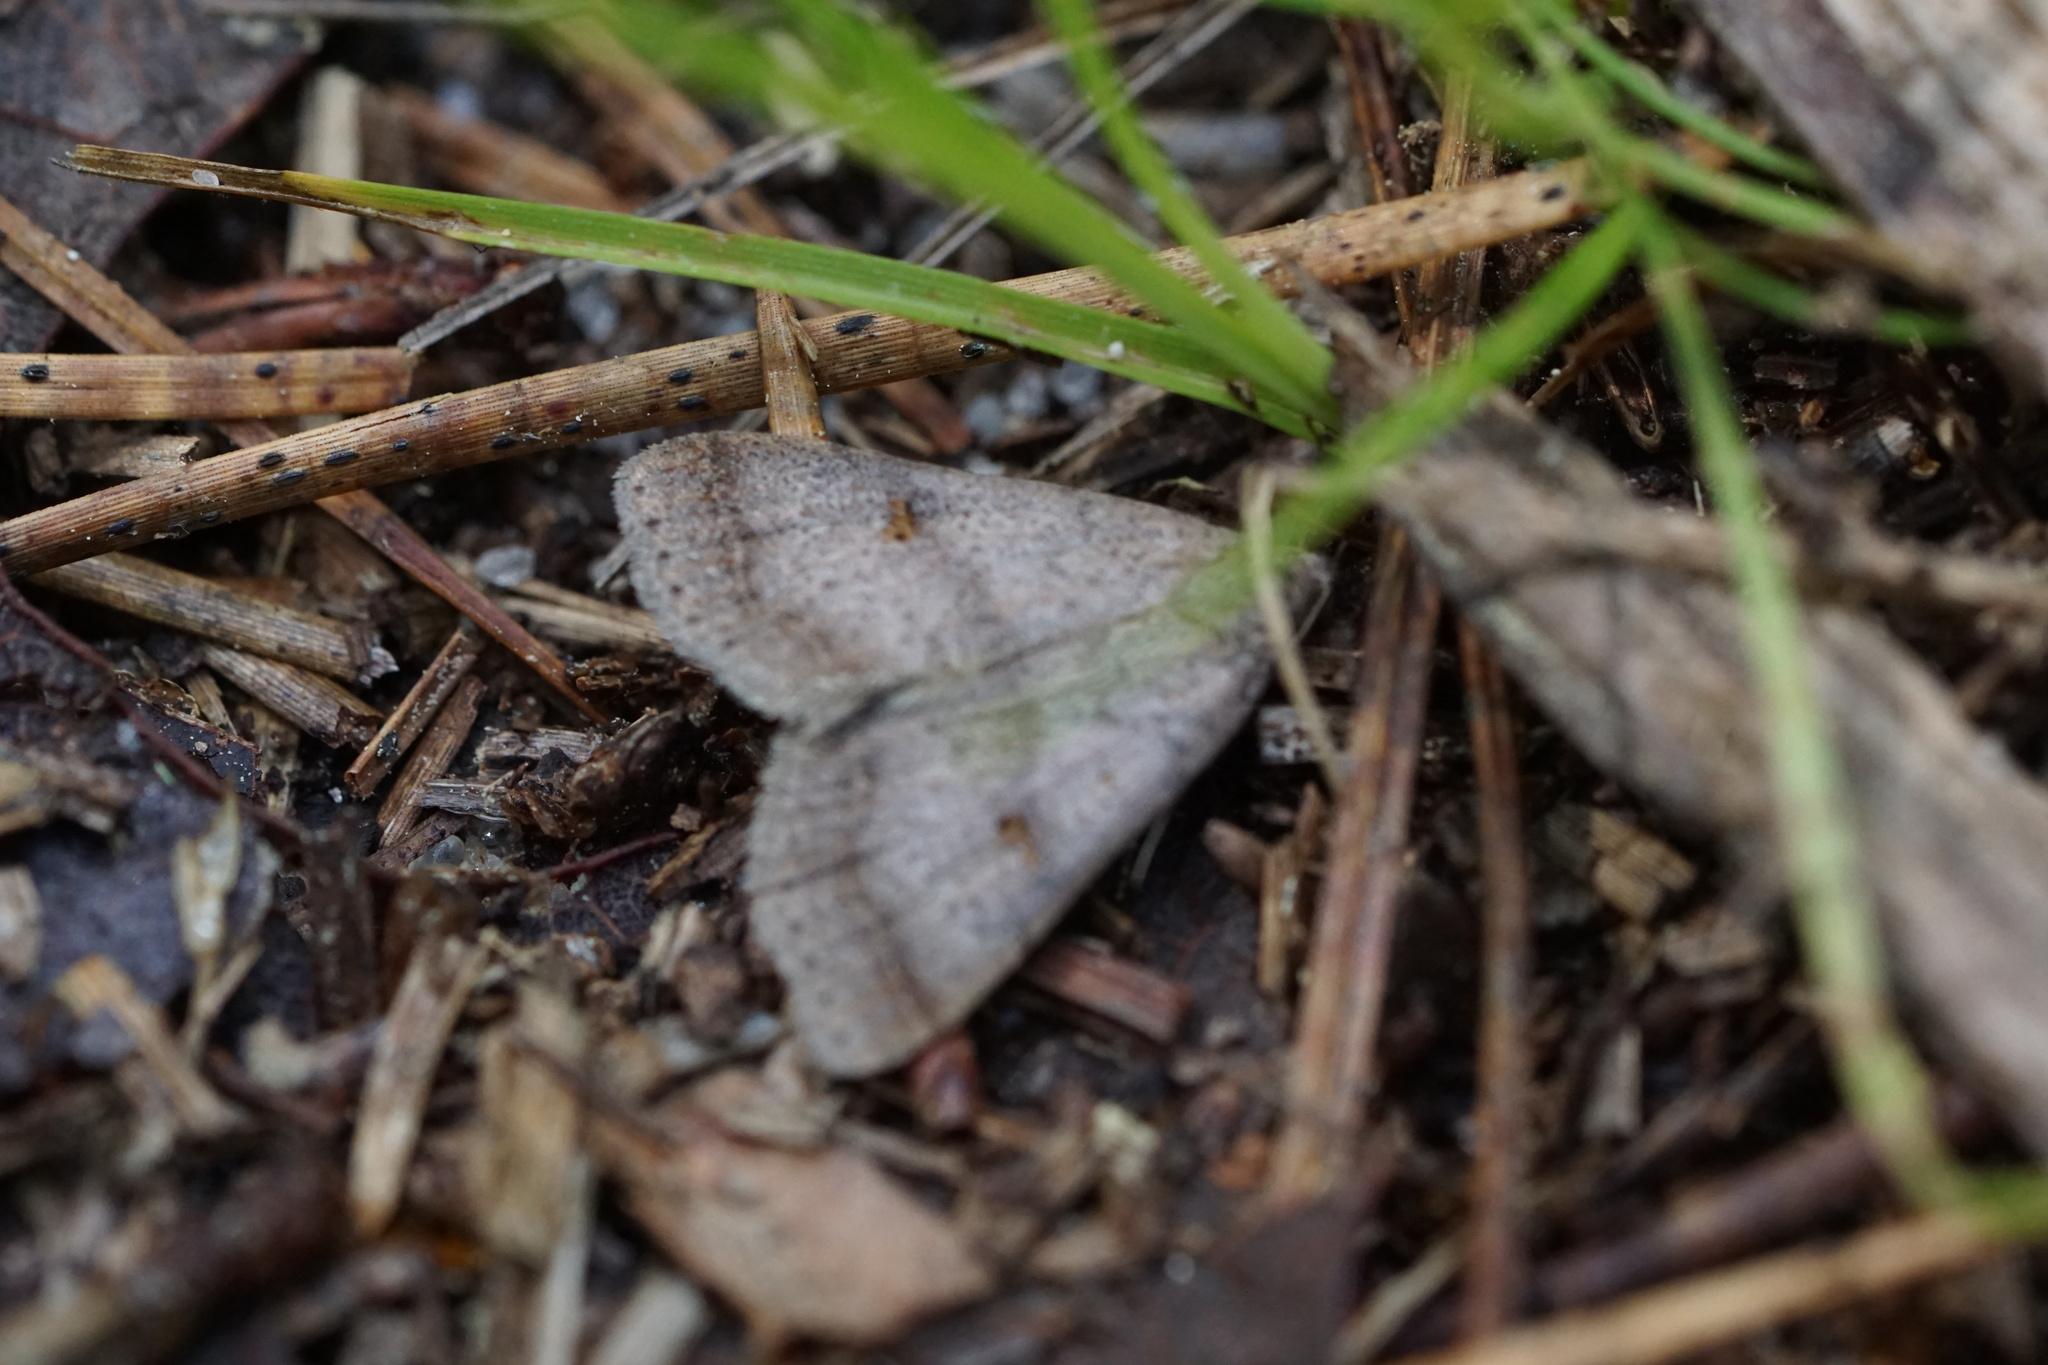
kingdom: Animalia
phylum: Arthropoda
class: Insecta
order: Lepidoptera
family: Erebidae
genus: Bleptina
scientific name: Bleptina caradrinalis
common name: Bent-winged owlet
